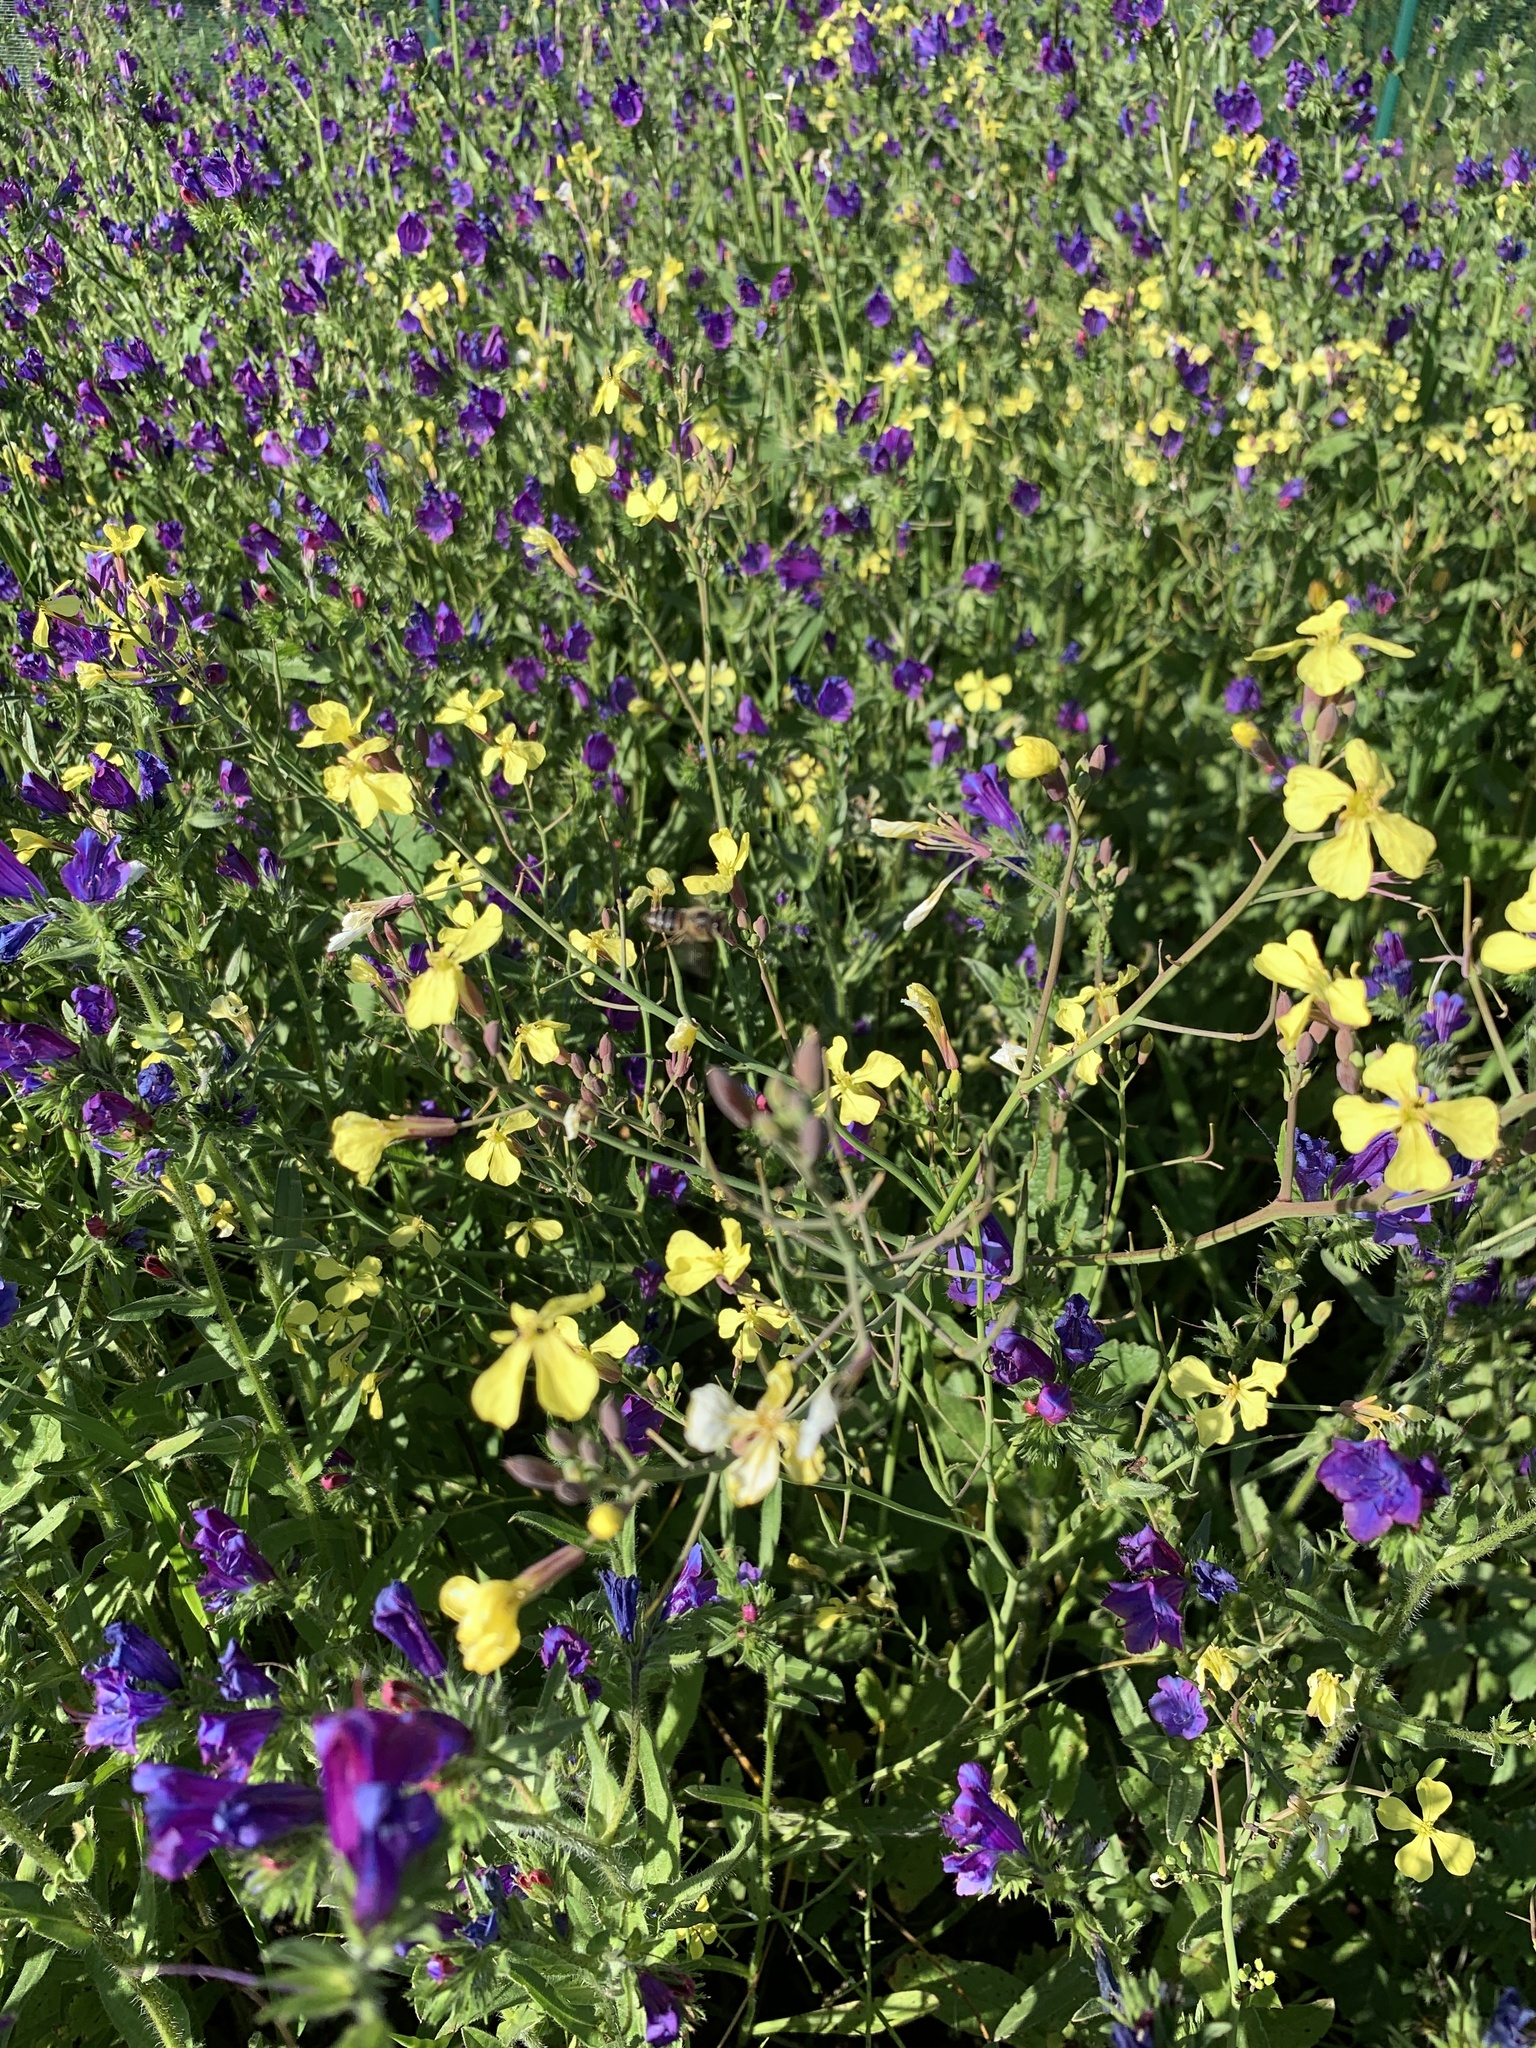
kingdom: Plantae
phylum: Tracheophyta
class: Magnoliopsida
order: Brassicales
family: Brassicaceae
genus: Raphanus
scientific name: Raphanus raphanistrum
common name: Wild radish
